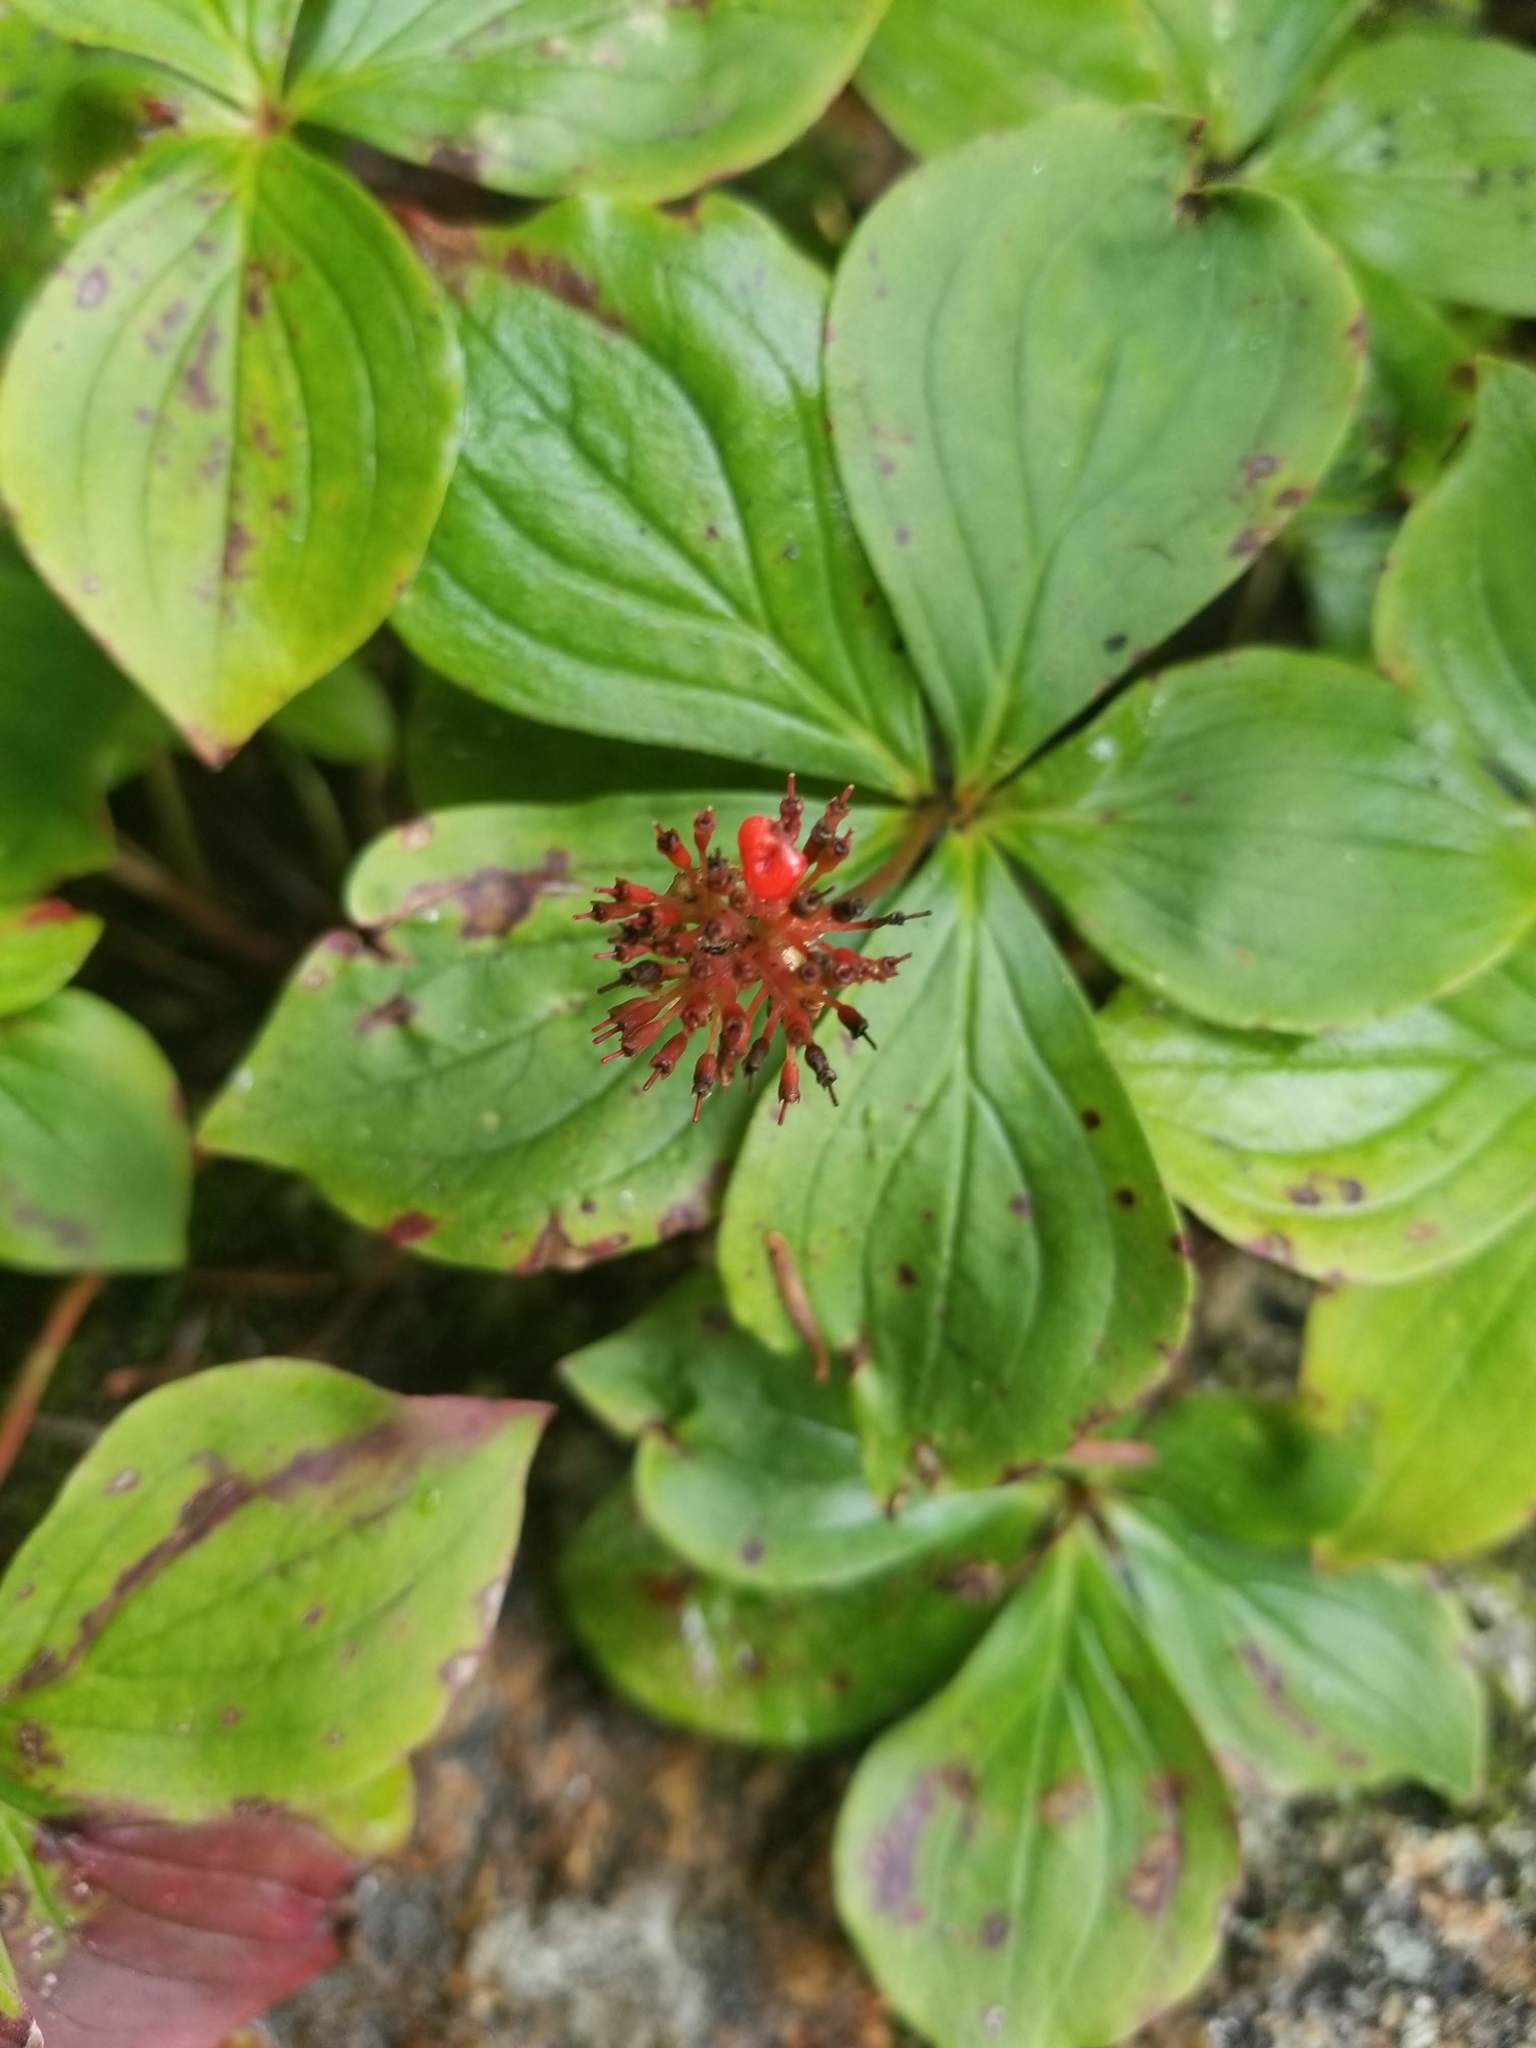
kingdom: Plantae
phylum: Tracheophyta
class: Magnoliopsida
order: Cornales
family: Cornaceae
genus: Cornus
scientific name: Cornus canadensis
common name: Creeping dogwood
